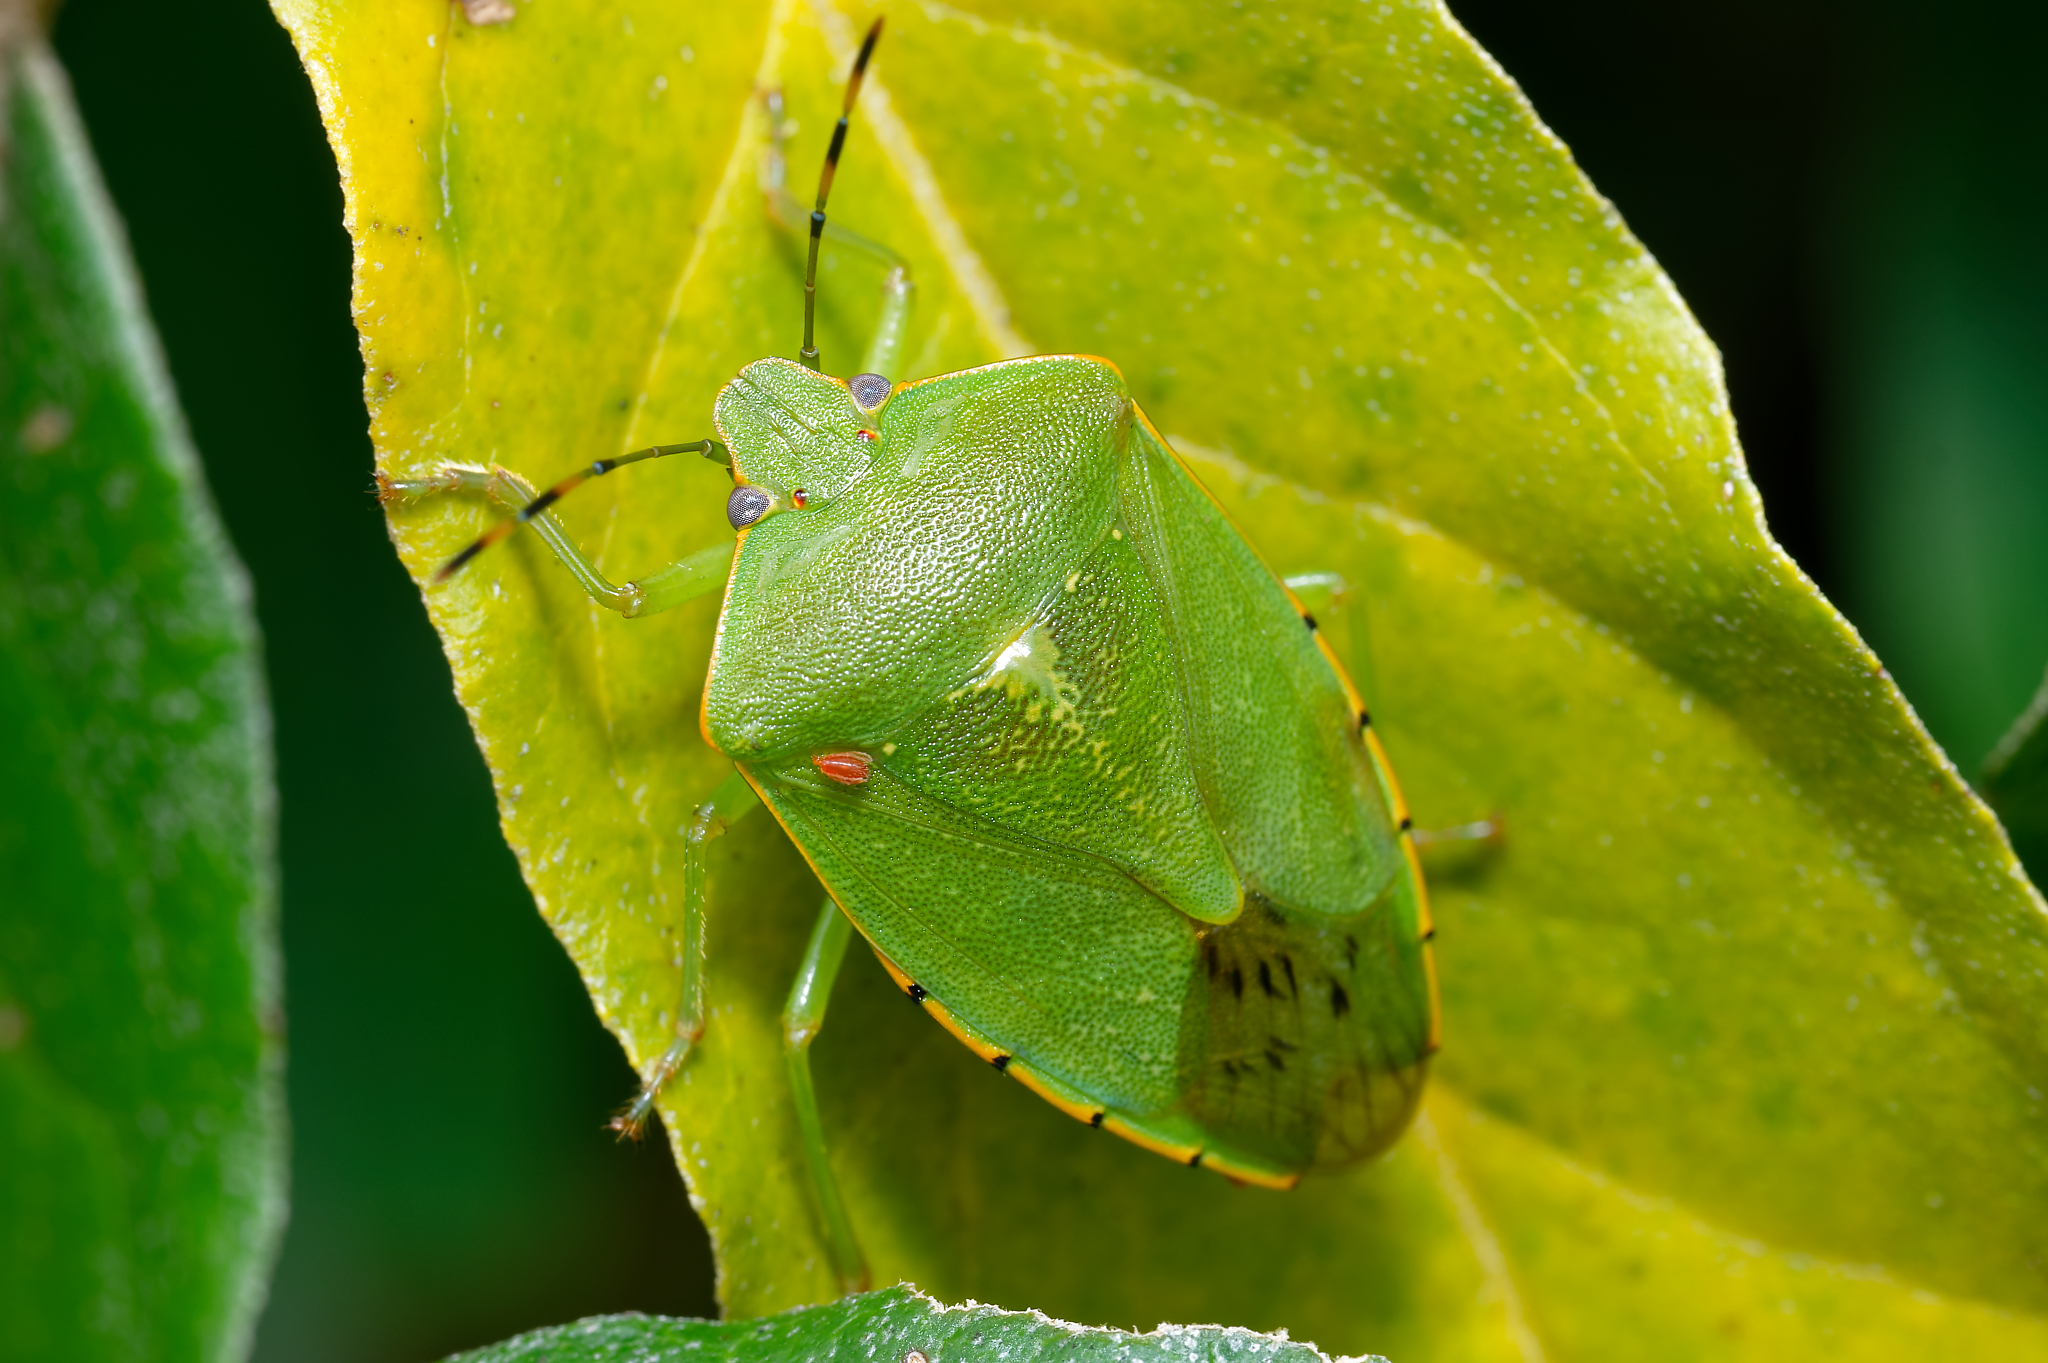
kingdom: Animalia
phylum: Arthropoda
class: Insecta
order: Hemiptera
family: Pentatomidae
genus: Chinavia
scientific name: Chinavia hilaris
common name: Green stink bug
